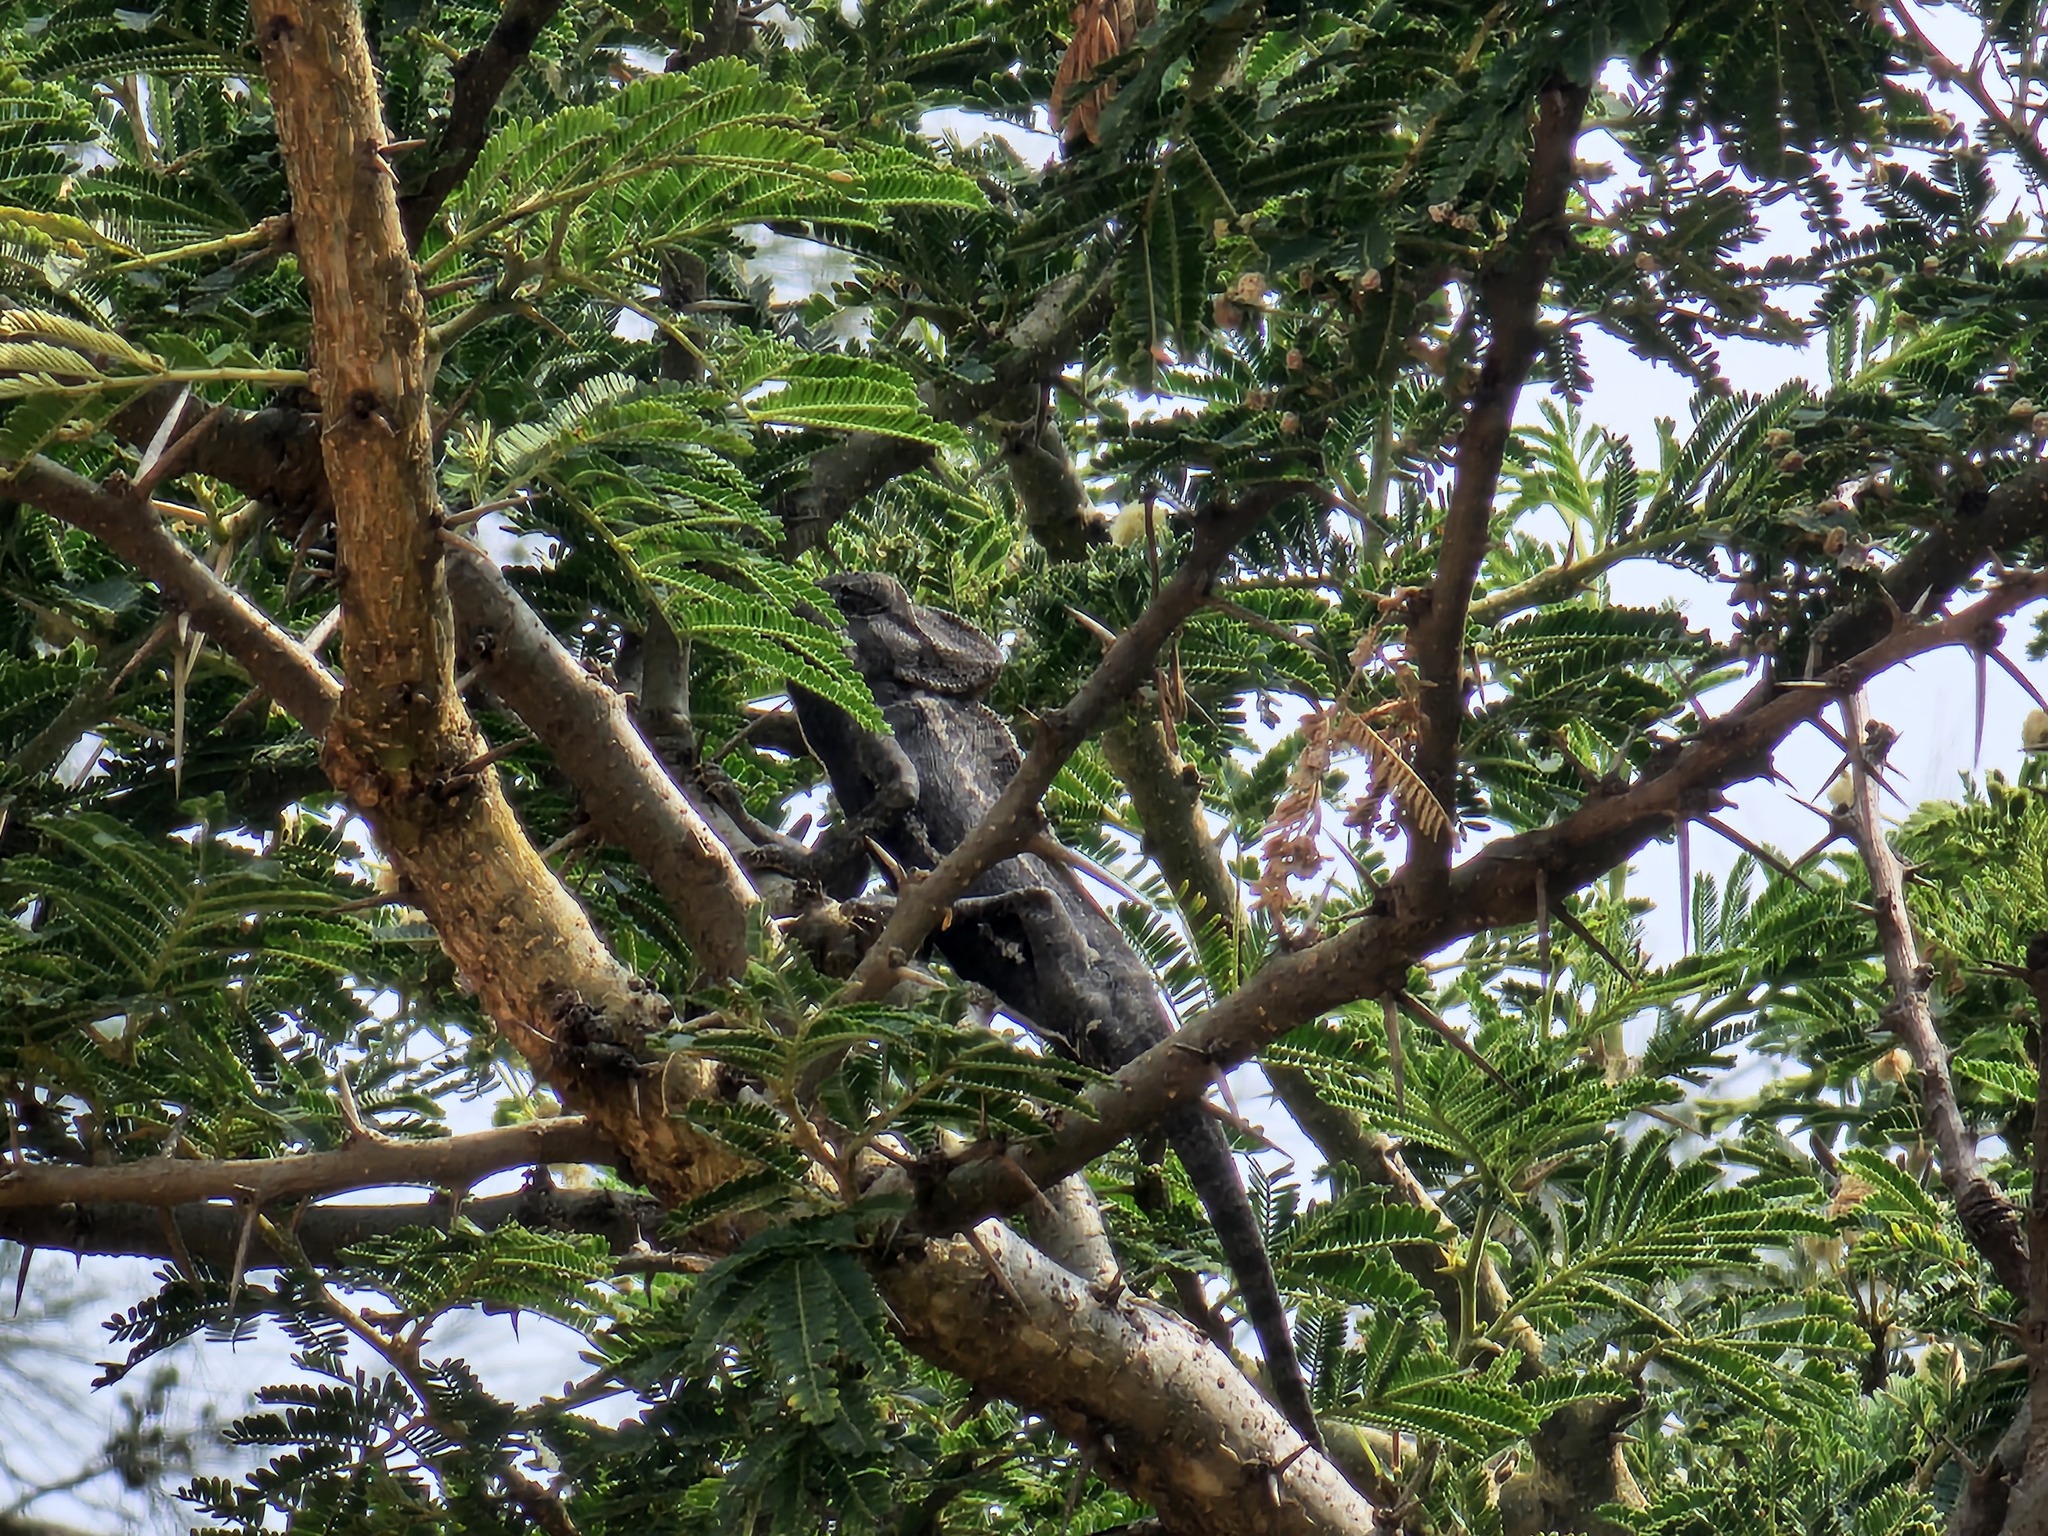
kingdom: Animalia
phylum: Chordata
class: Squamata
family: Chamaeleonidae
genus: Chamaeleo
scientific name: Chamaeleo chamaeleon
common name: Mediterranean chameleon
